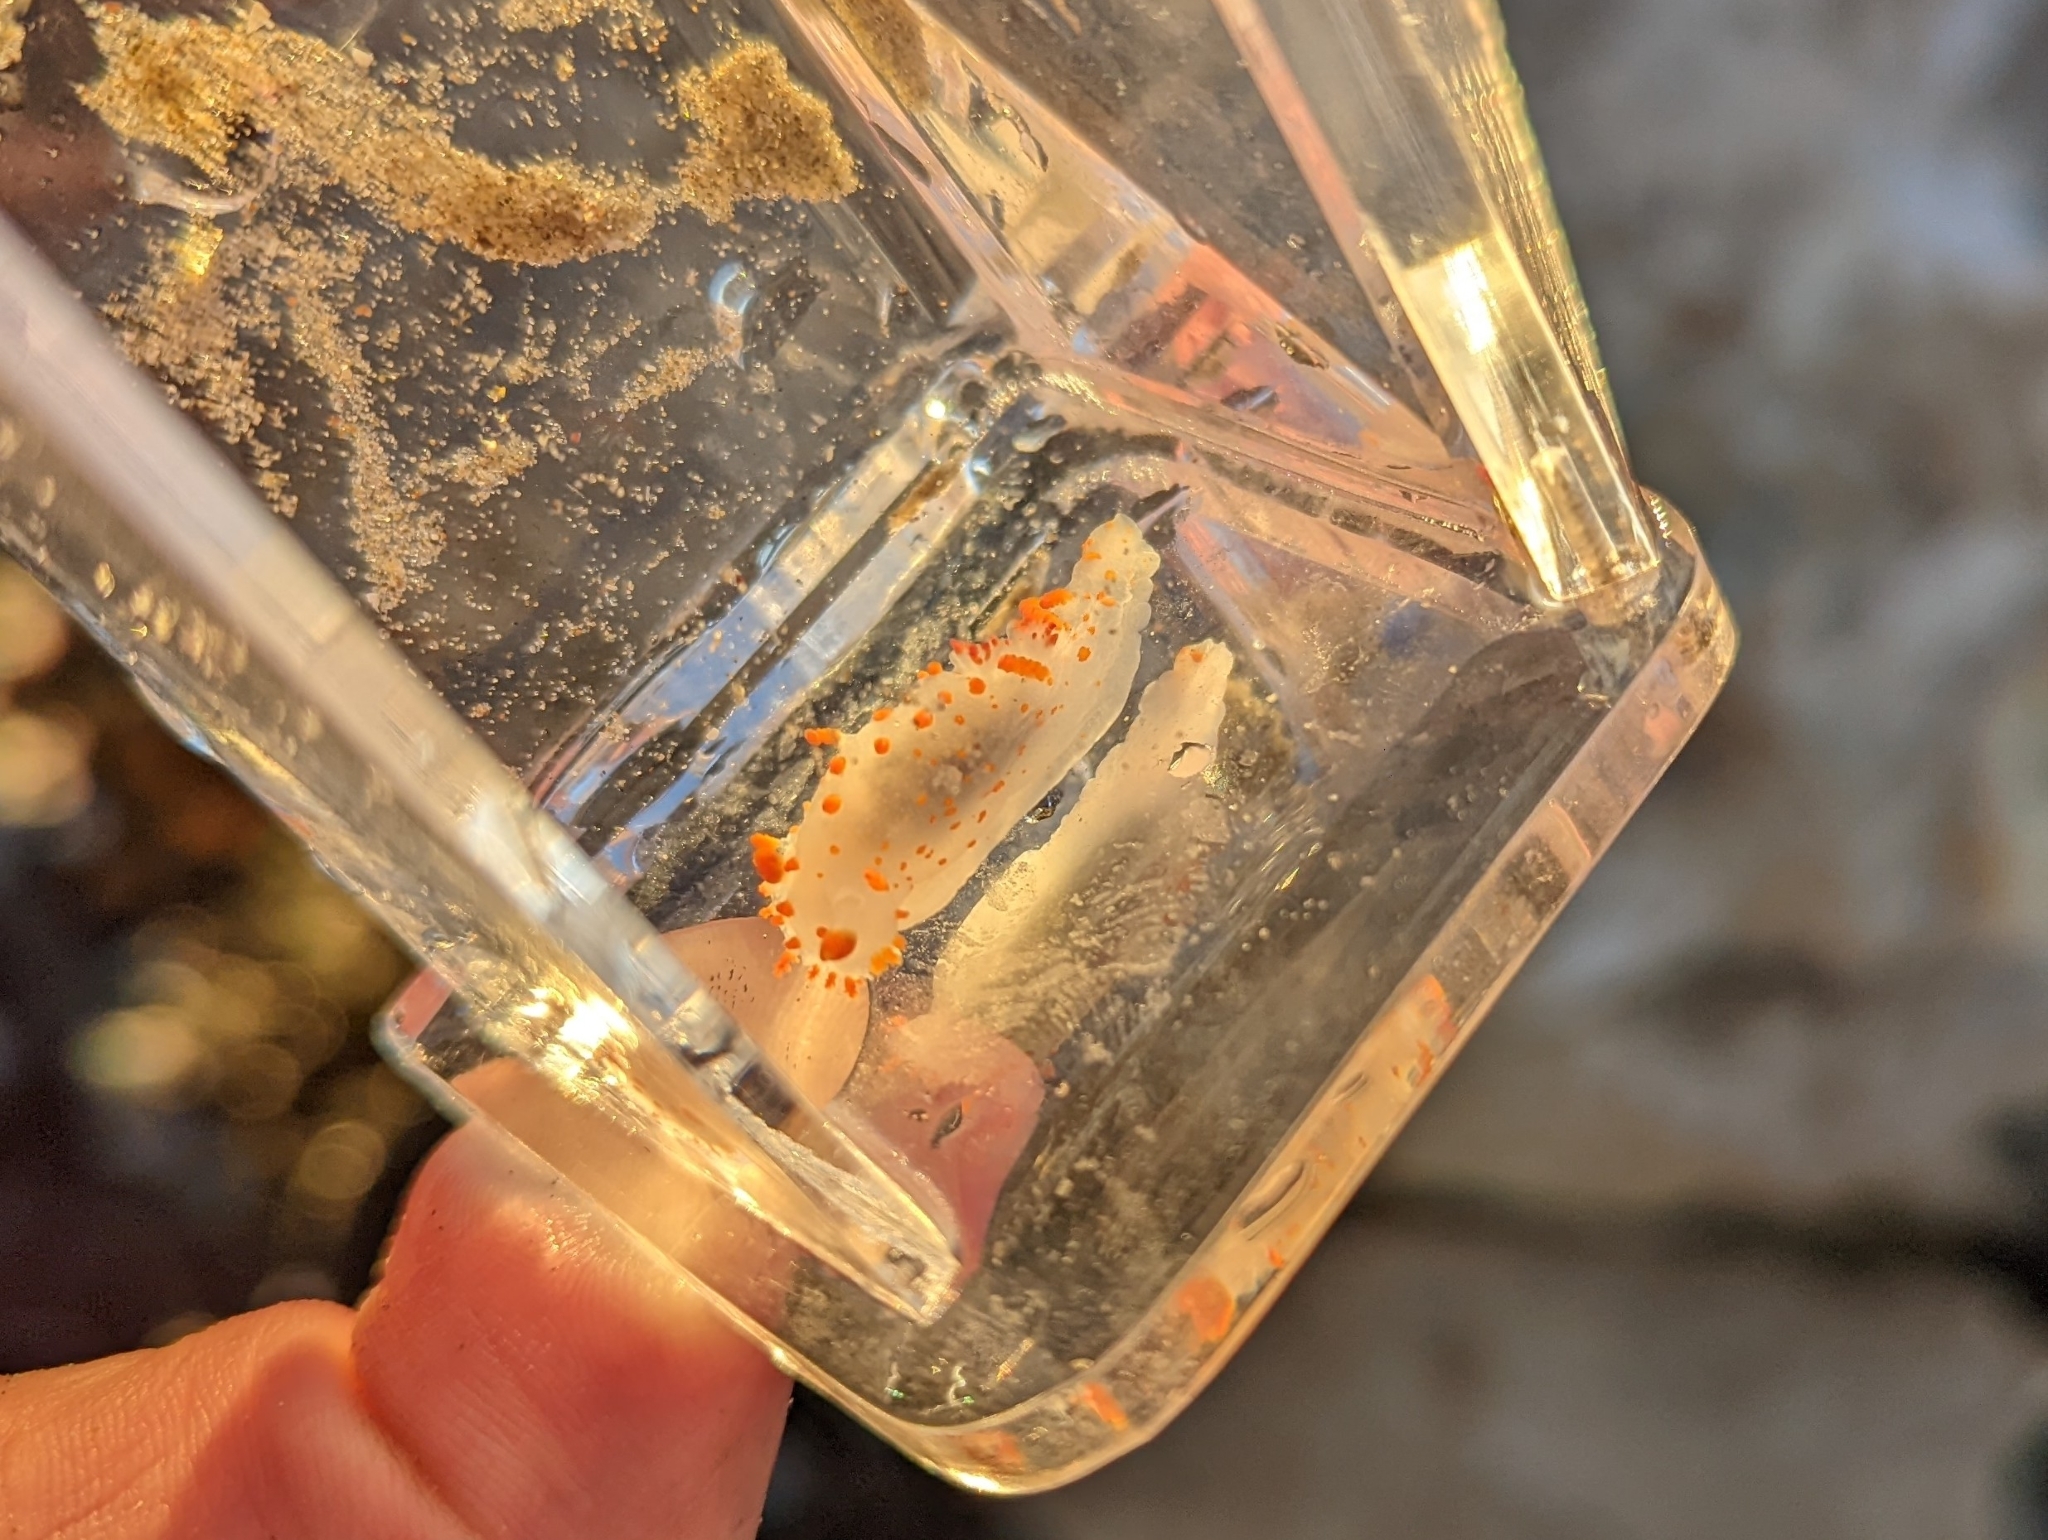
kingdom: Animalia
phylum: Mollusca
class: Gastropoda
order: Nudibranchia
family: Polyceridae
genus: Triopha
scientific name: Triopha catalinae
